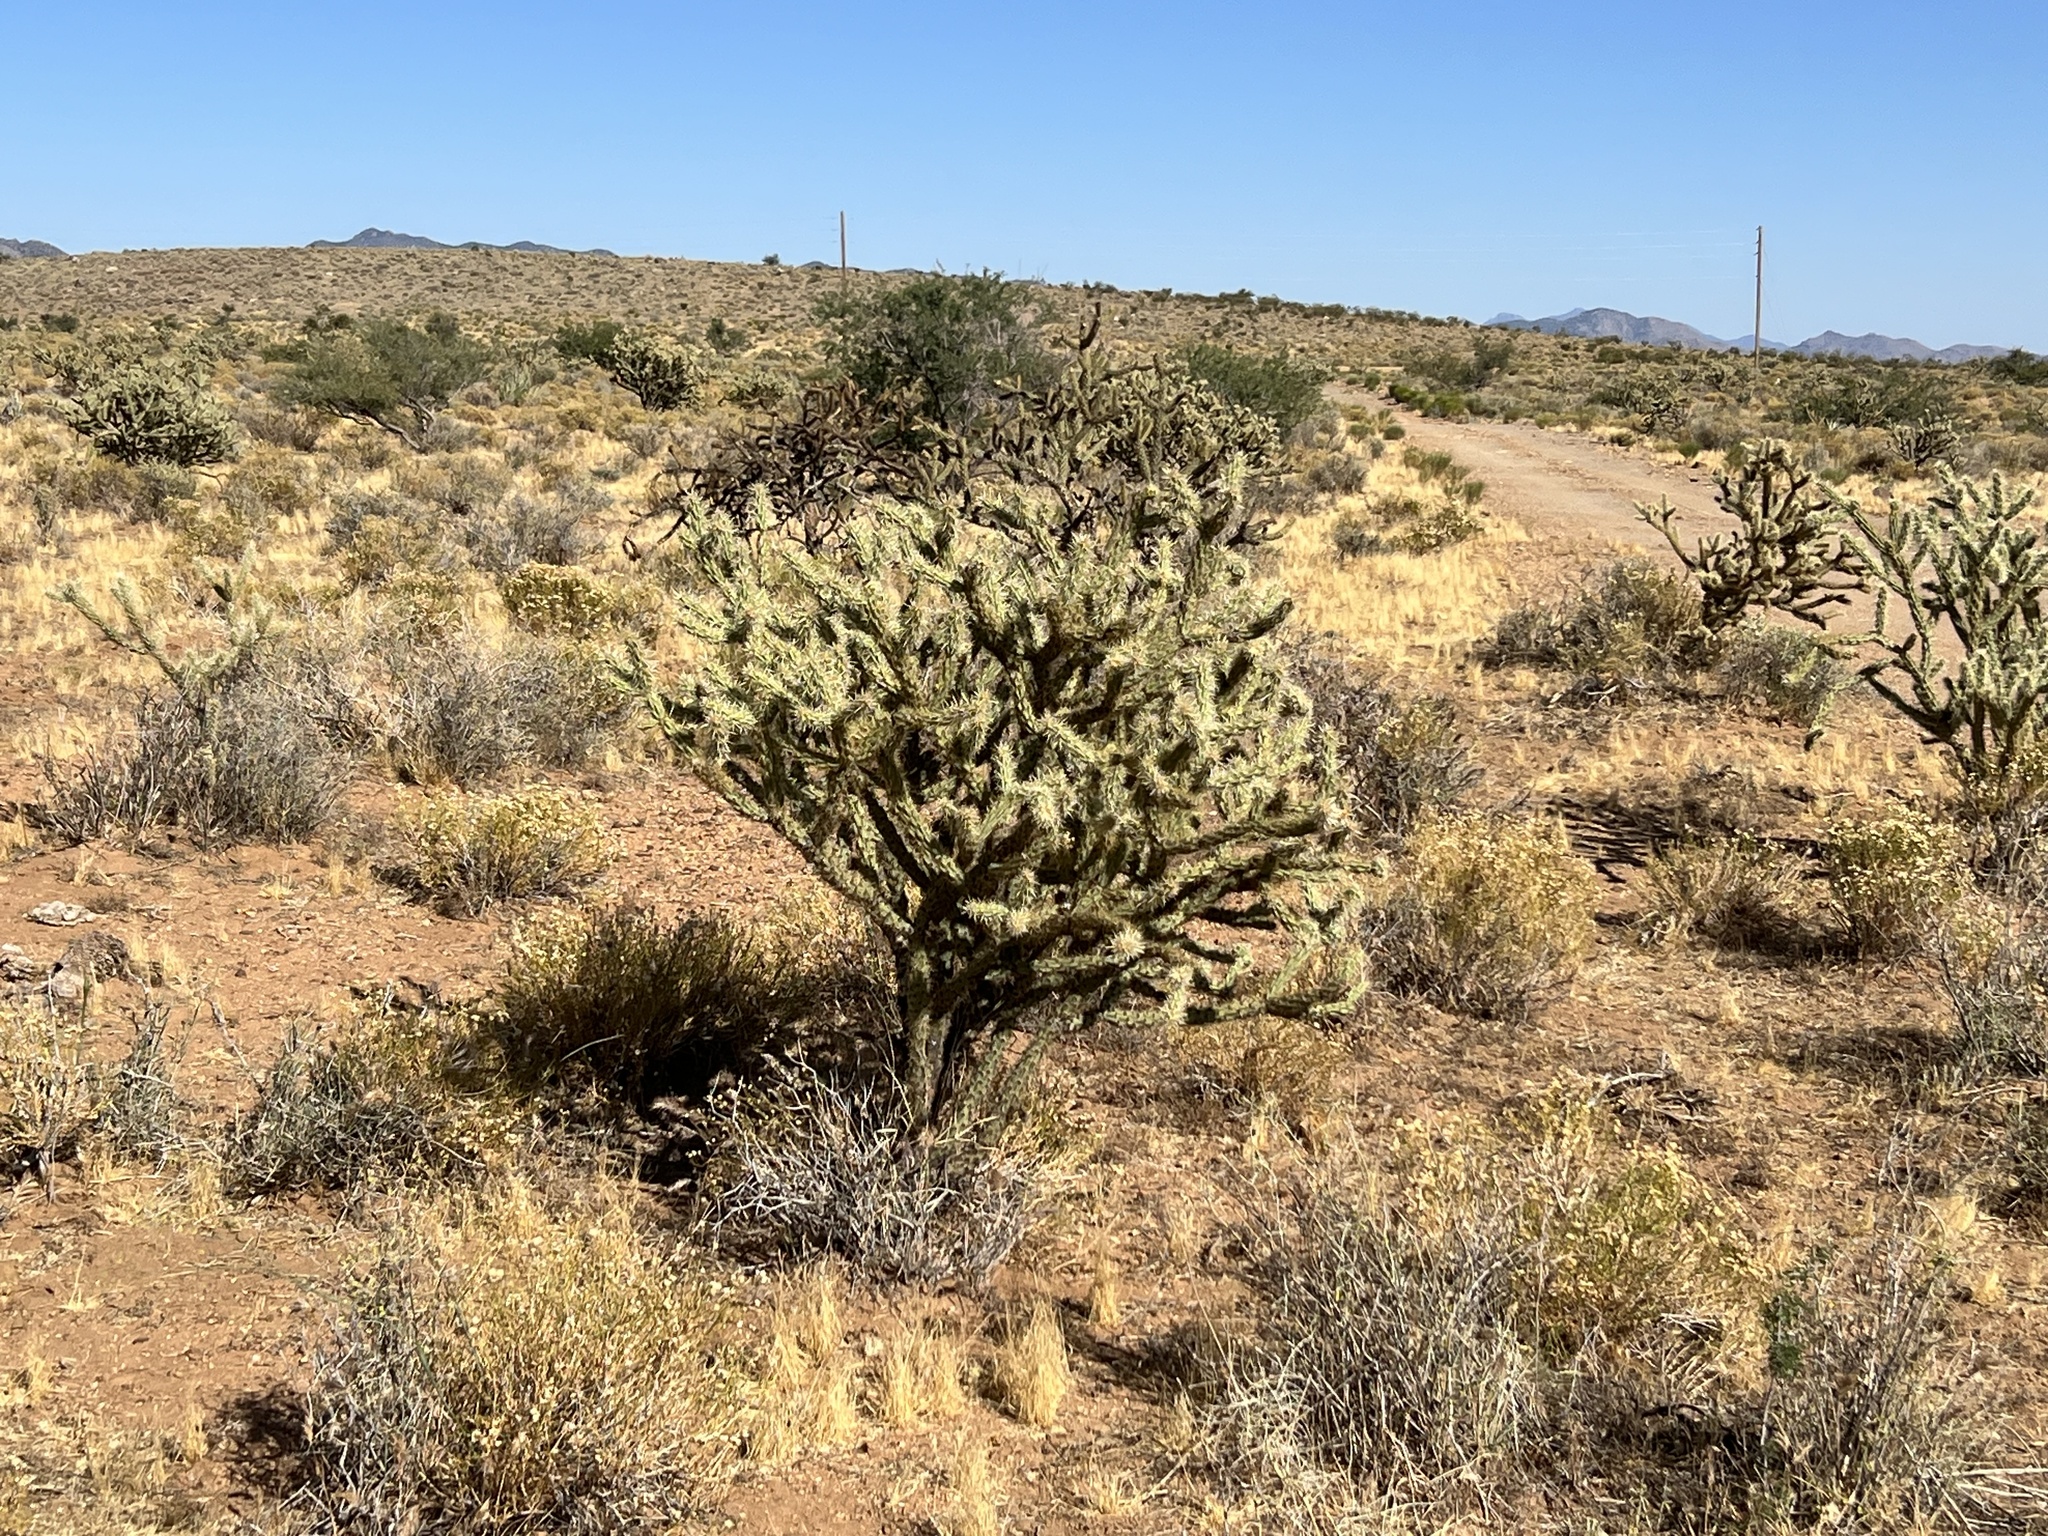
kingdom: Plantae
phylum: Tracheophyta
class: Magnoliopsida
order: Caryophyllales
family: Cactaceae
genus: Cylindropuntia
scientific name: Cylindropuntia acanthocarpa
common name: Buckhorn cholla
